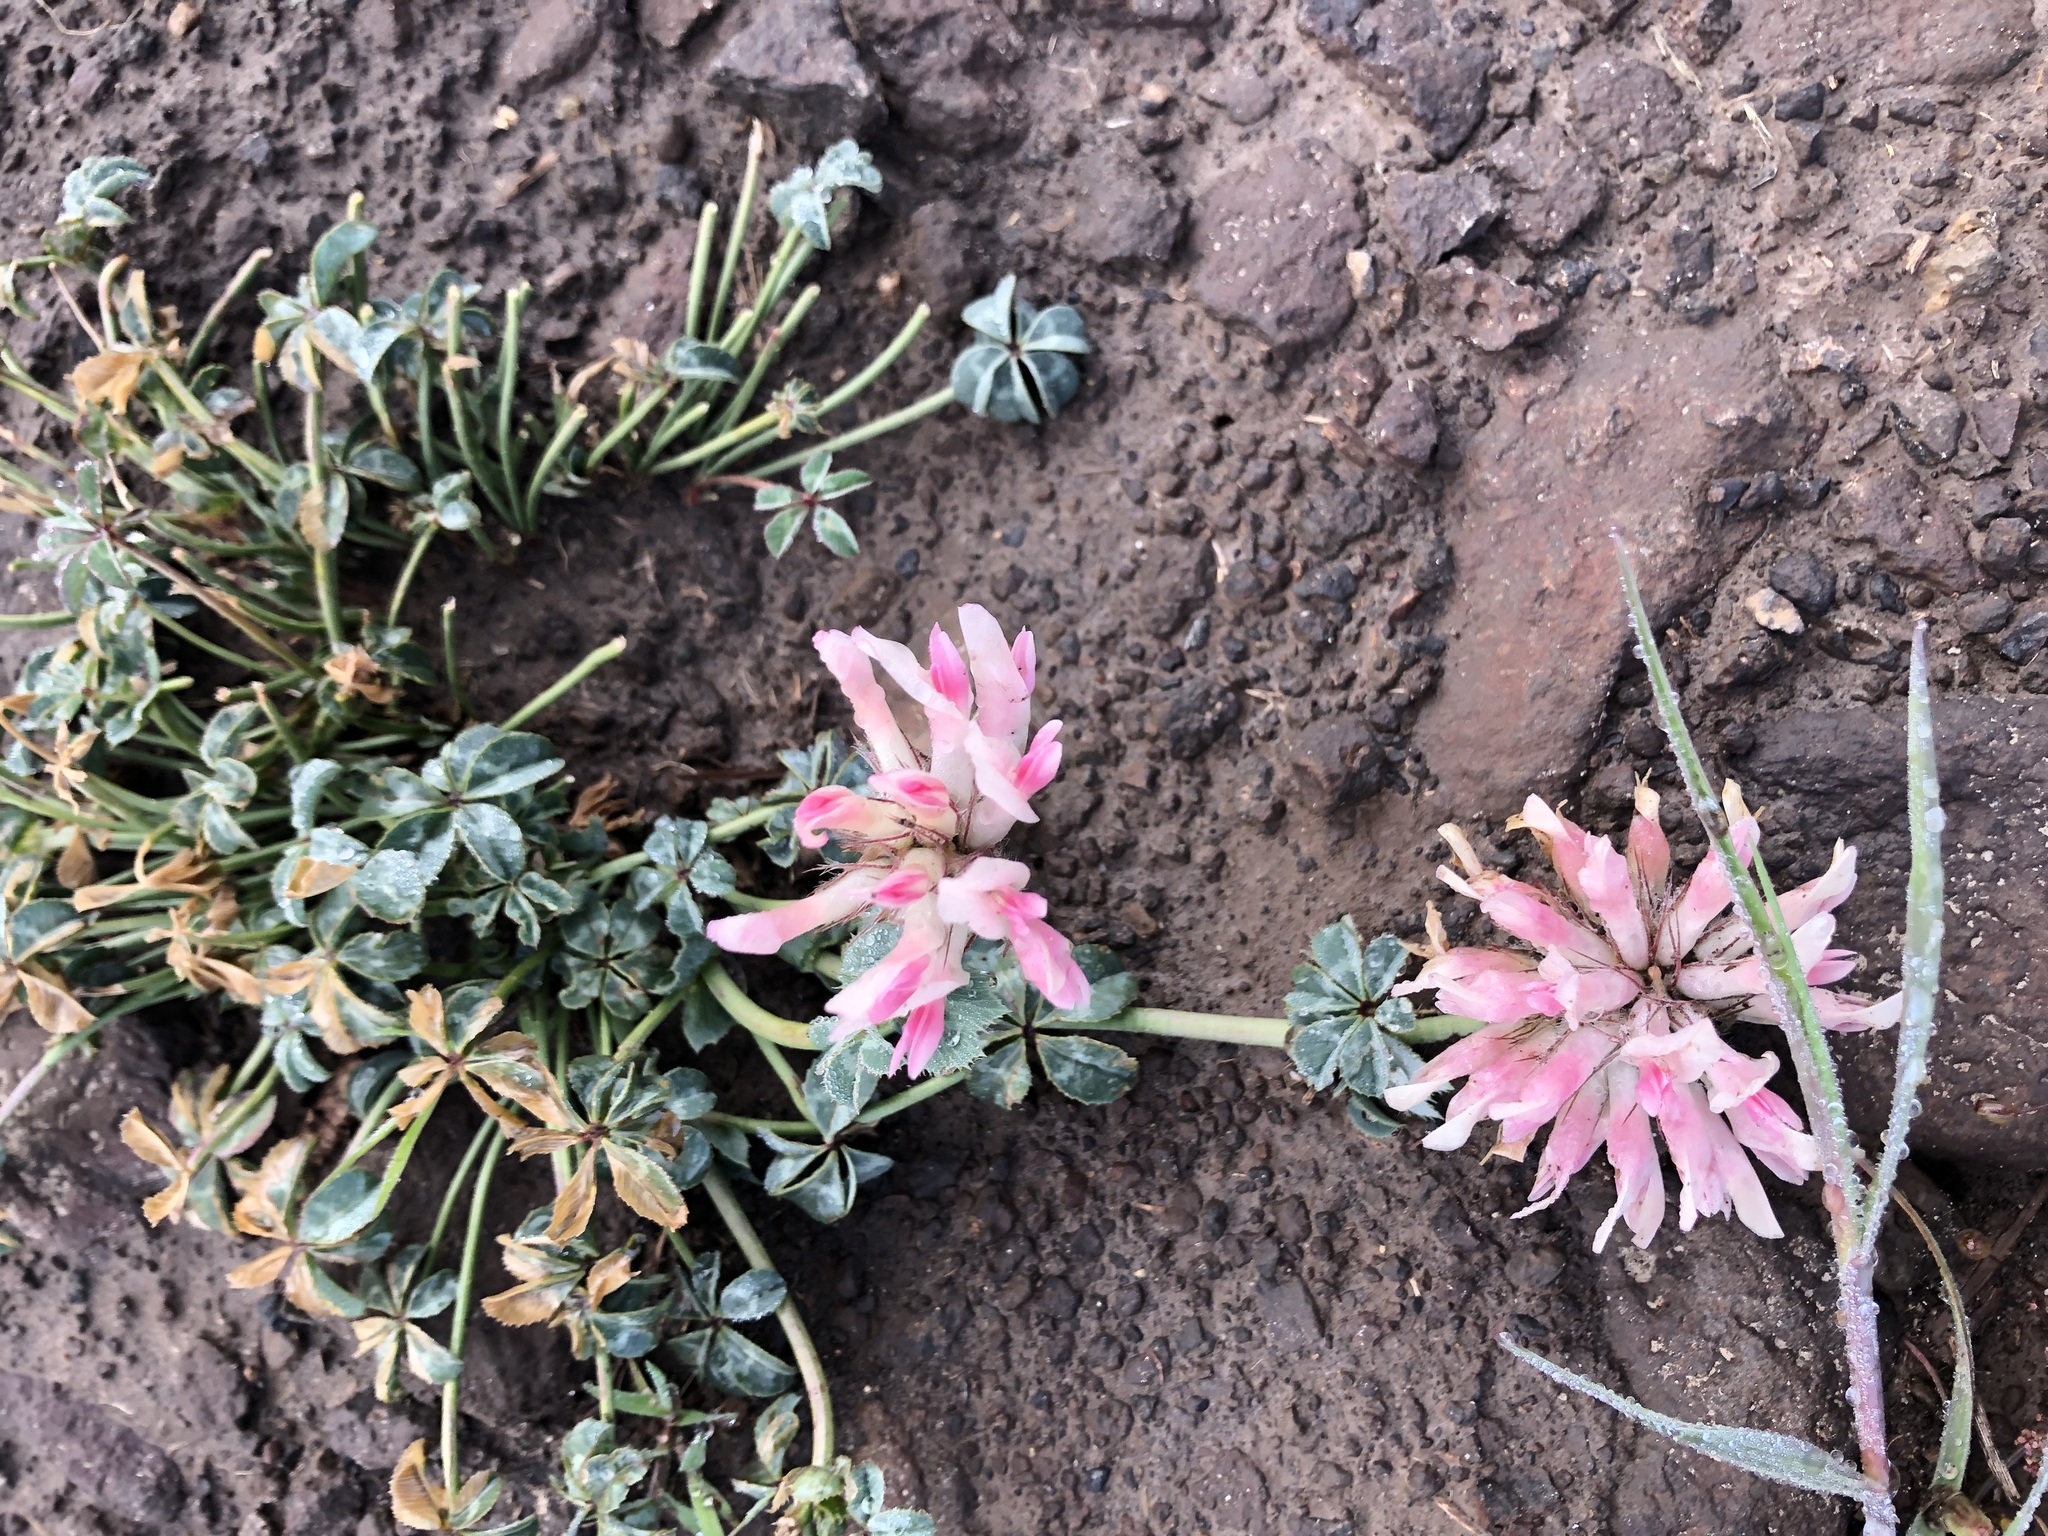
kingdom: Plantae
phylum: Tracheophyta
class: Magnoliopsida
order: Fabales
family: Fabaceae
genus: Trifolium
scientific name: Trifolium macrocephalum
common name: Large-head clover
